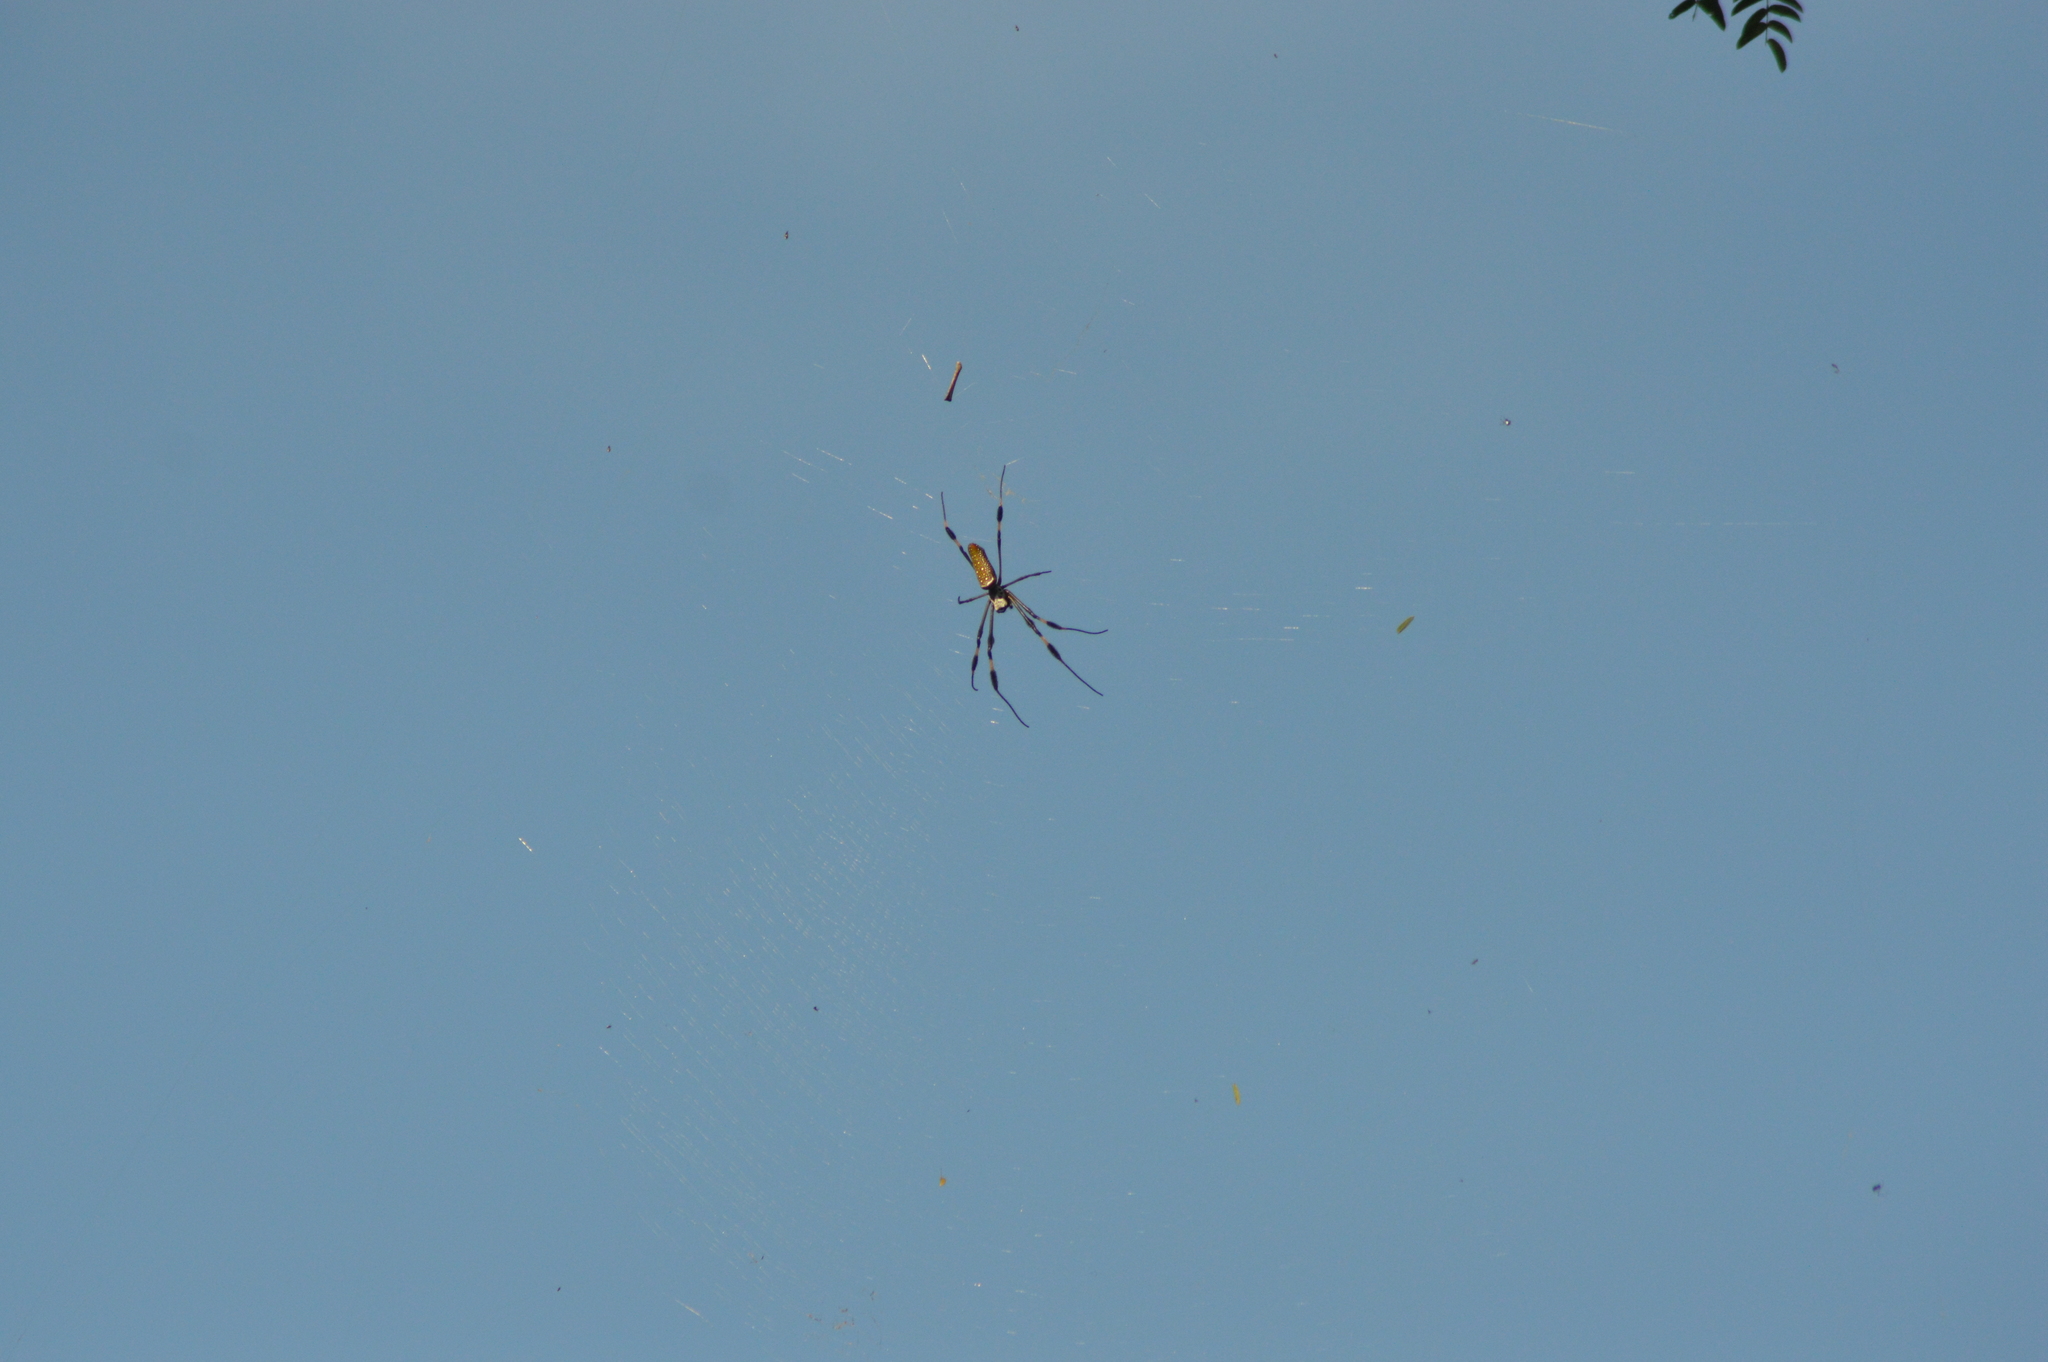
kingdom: Animalia
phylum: Arthropoda
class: Arachnida
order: Araneae
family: Araneidae
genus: Trichonephila
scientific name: Trichonephila clavipes
